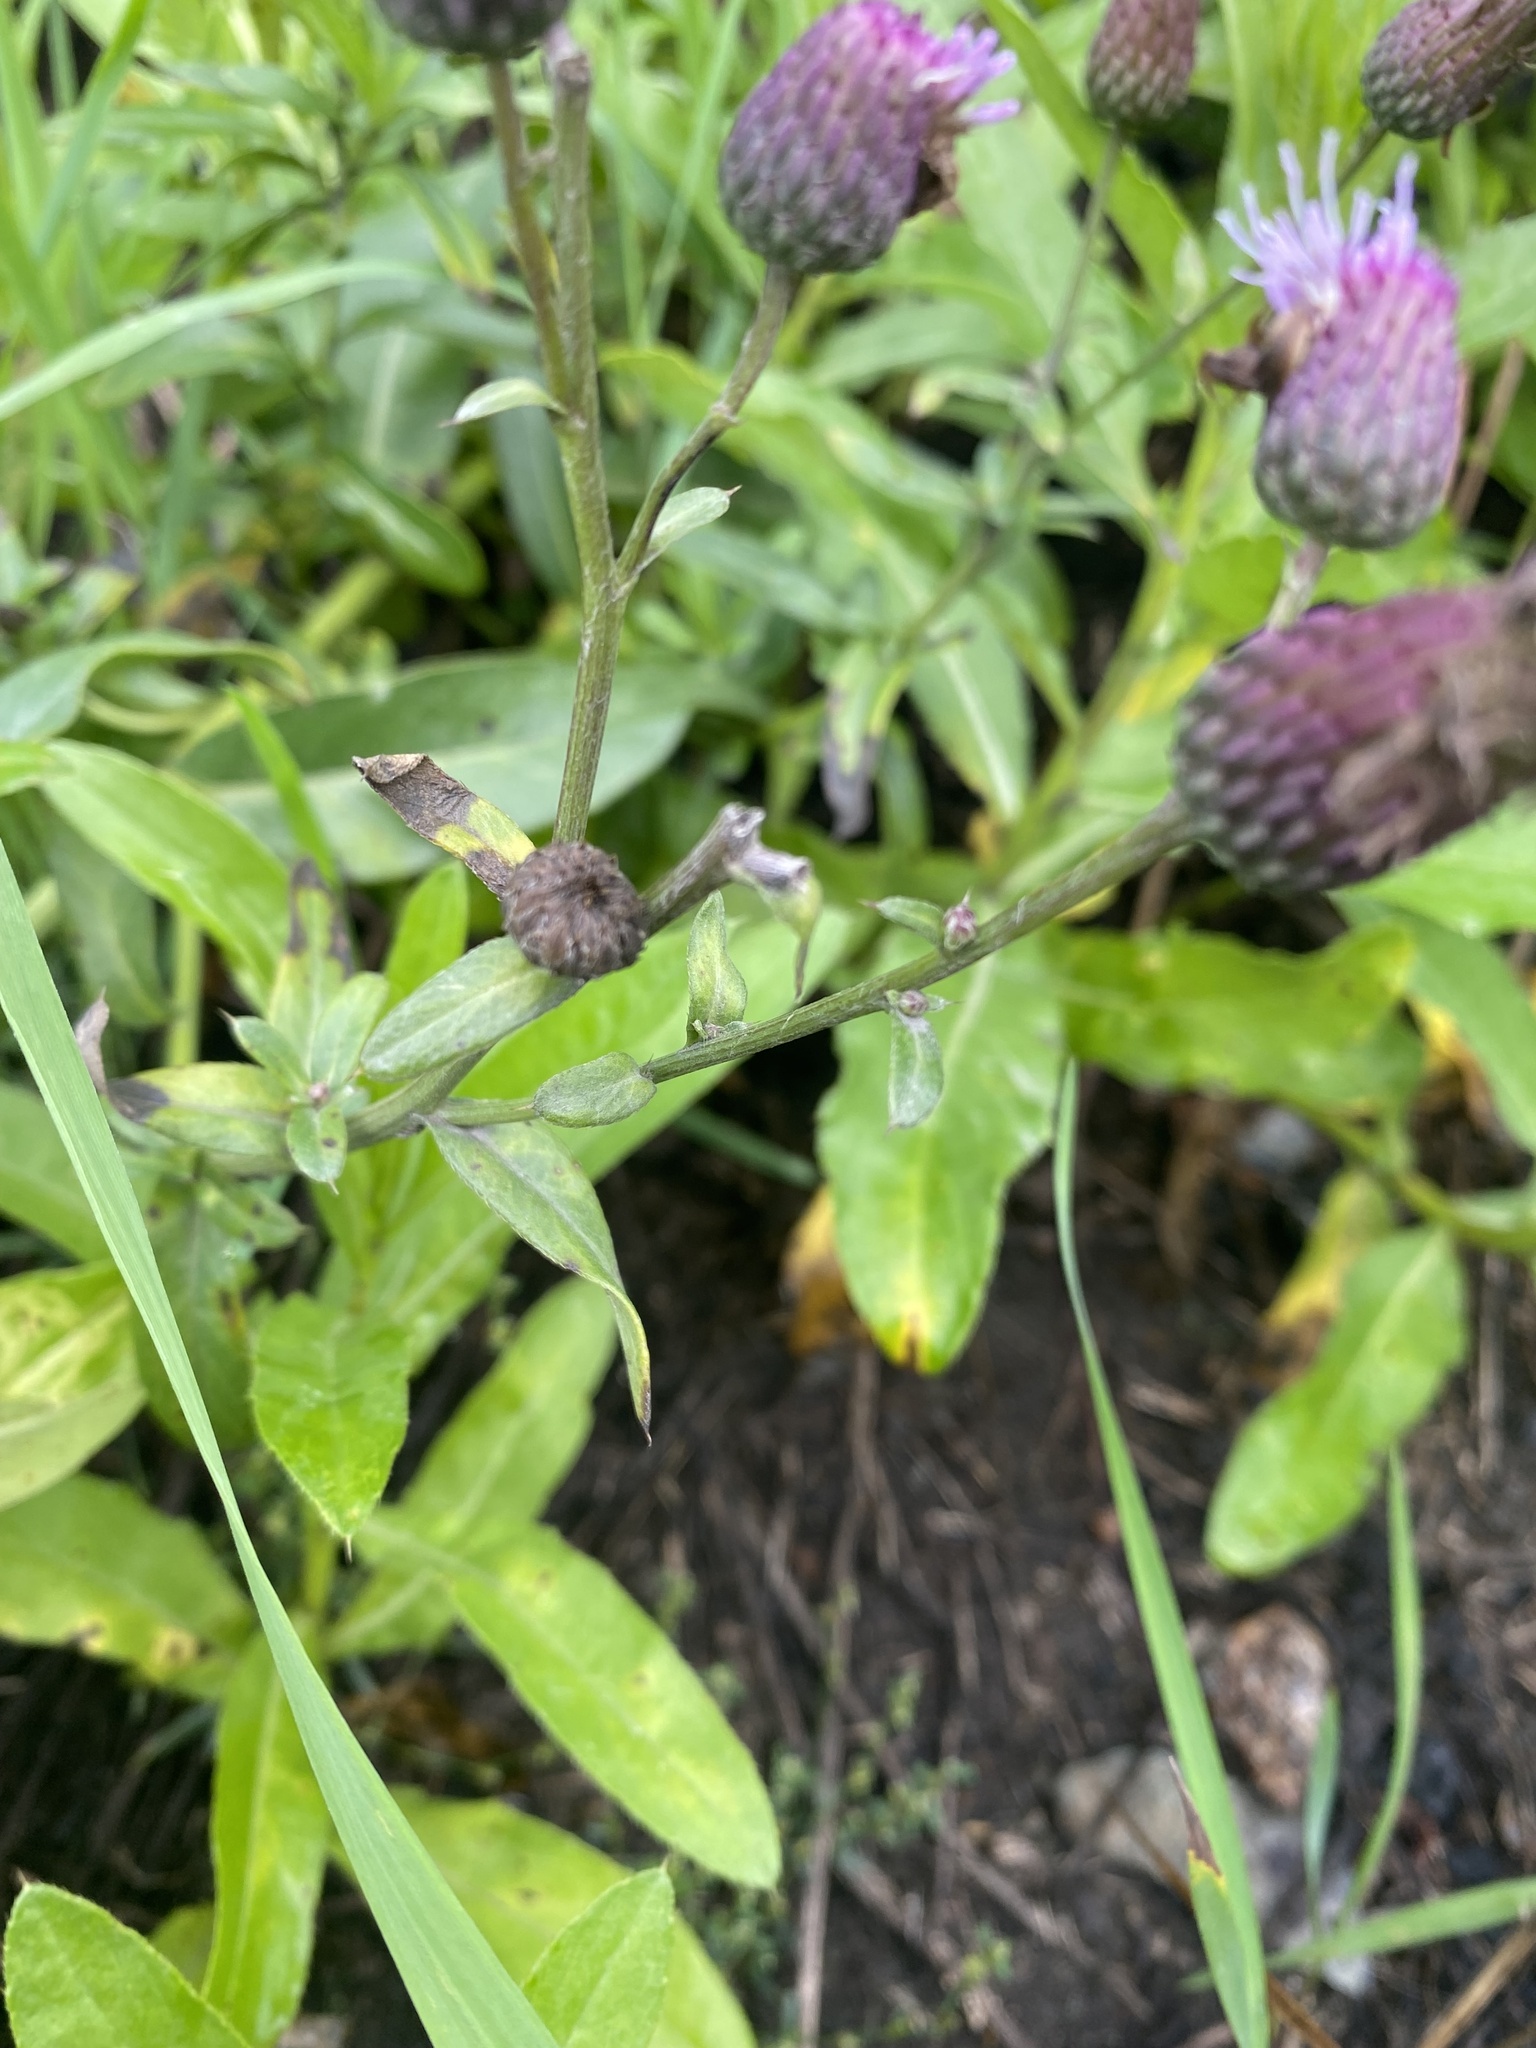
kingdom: Plantae
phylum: Tracheophyta
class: Magnoliopsida
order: Asterales
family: Asteraceae
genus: Cirsium
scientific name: Cirsium arvense
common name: Creeping thistle
